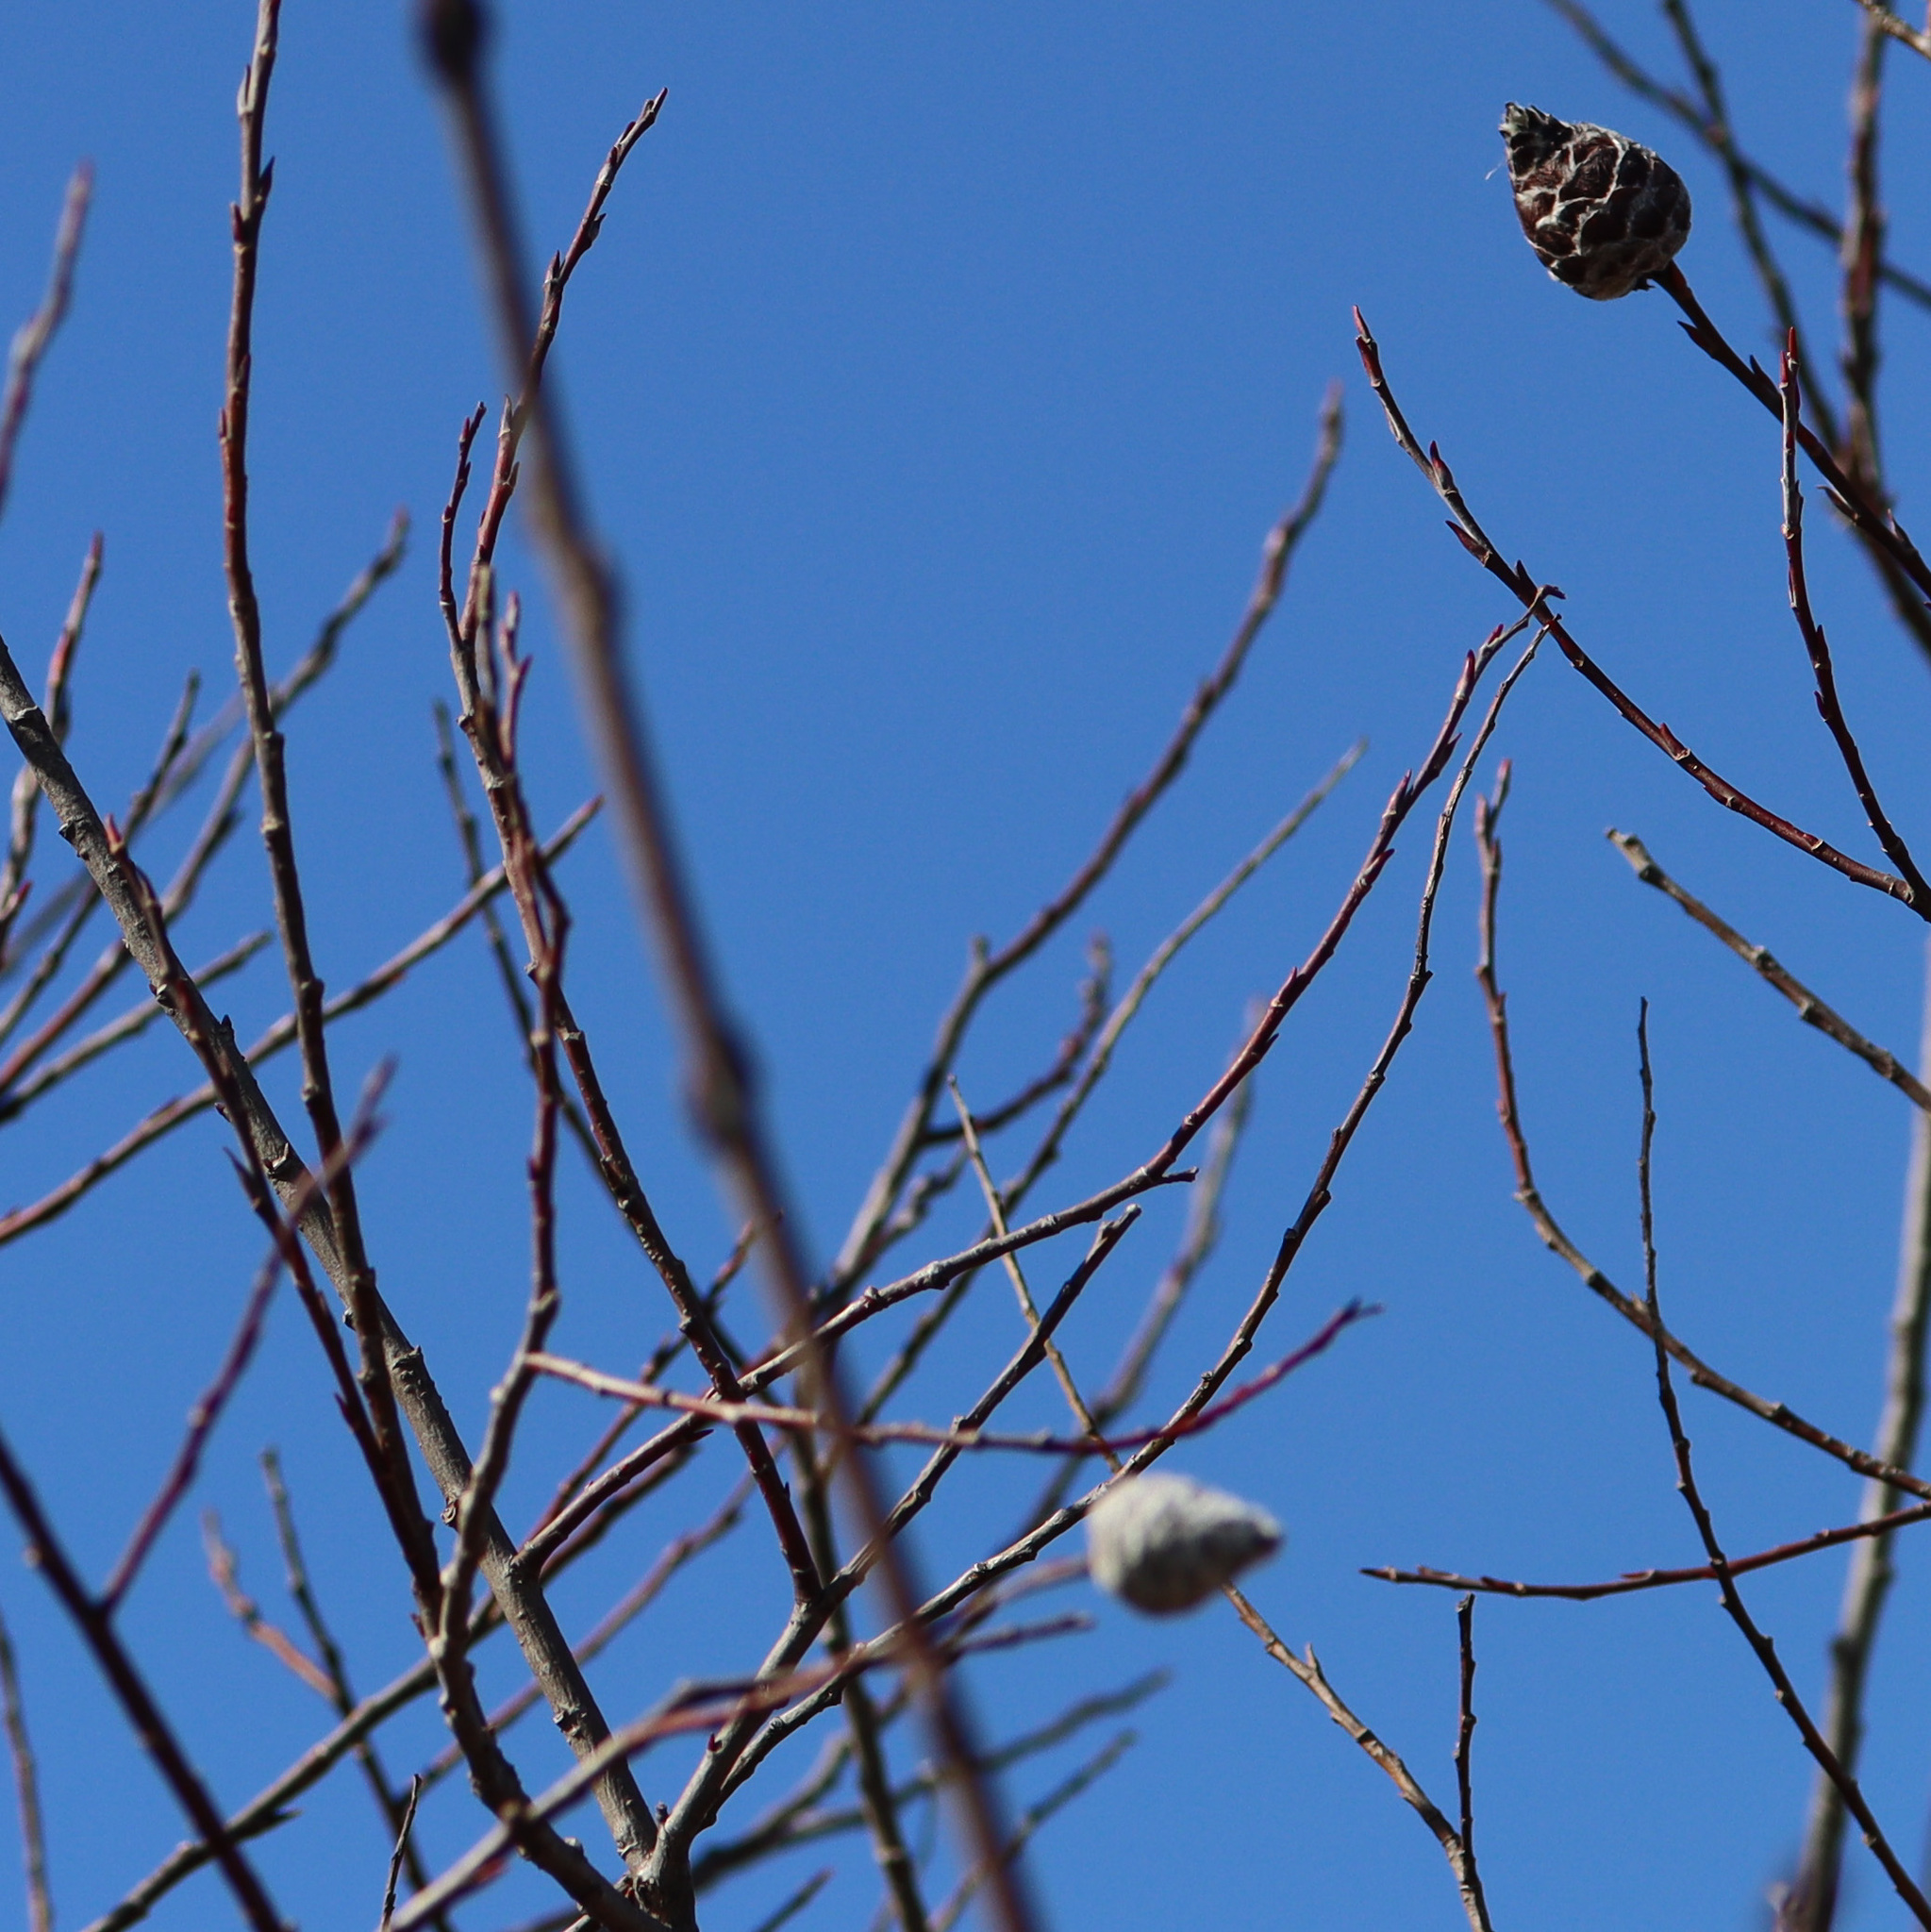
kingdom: Animalia
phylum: Arthropoda
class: Insecta
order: Diptera
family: Cecidomyiidae
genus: Rabdophaga
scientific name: Rabdophaga strobiloides
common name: Willow pinecone gall midge
